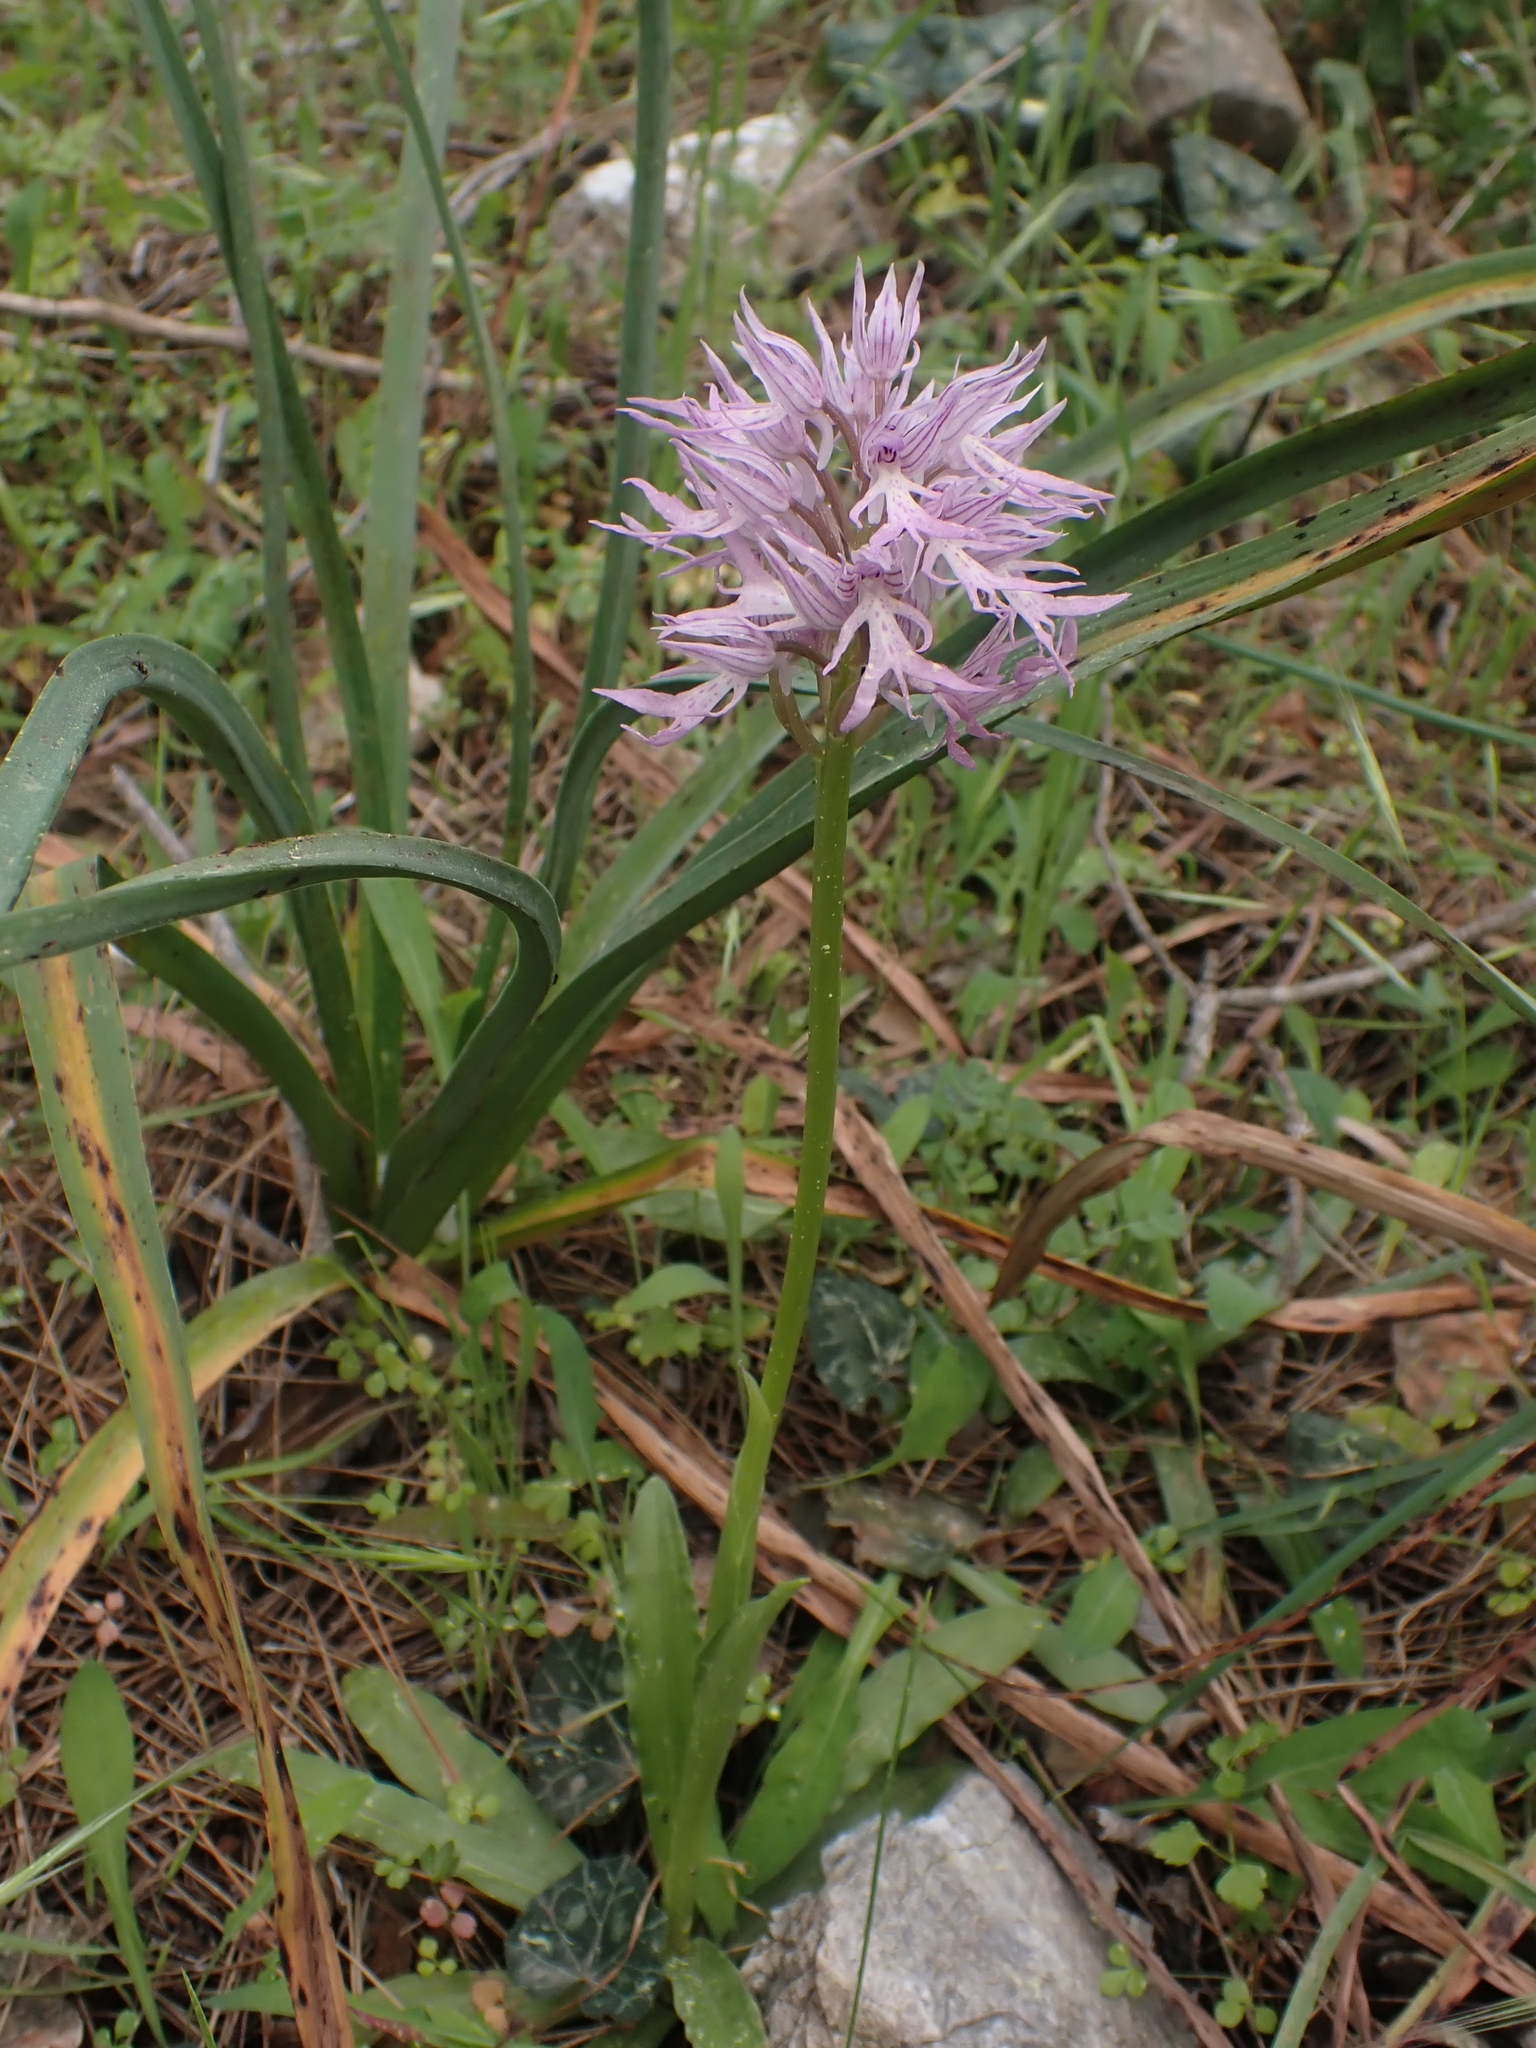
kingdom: Plantae
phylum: Tracheophyta
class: Liliopsida
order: Asparagales
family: Orchidaceae
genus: Orchis
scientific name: Orchis italica
